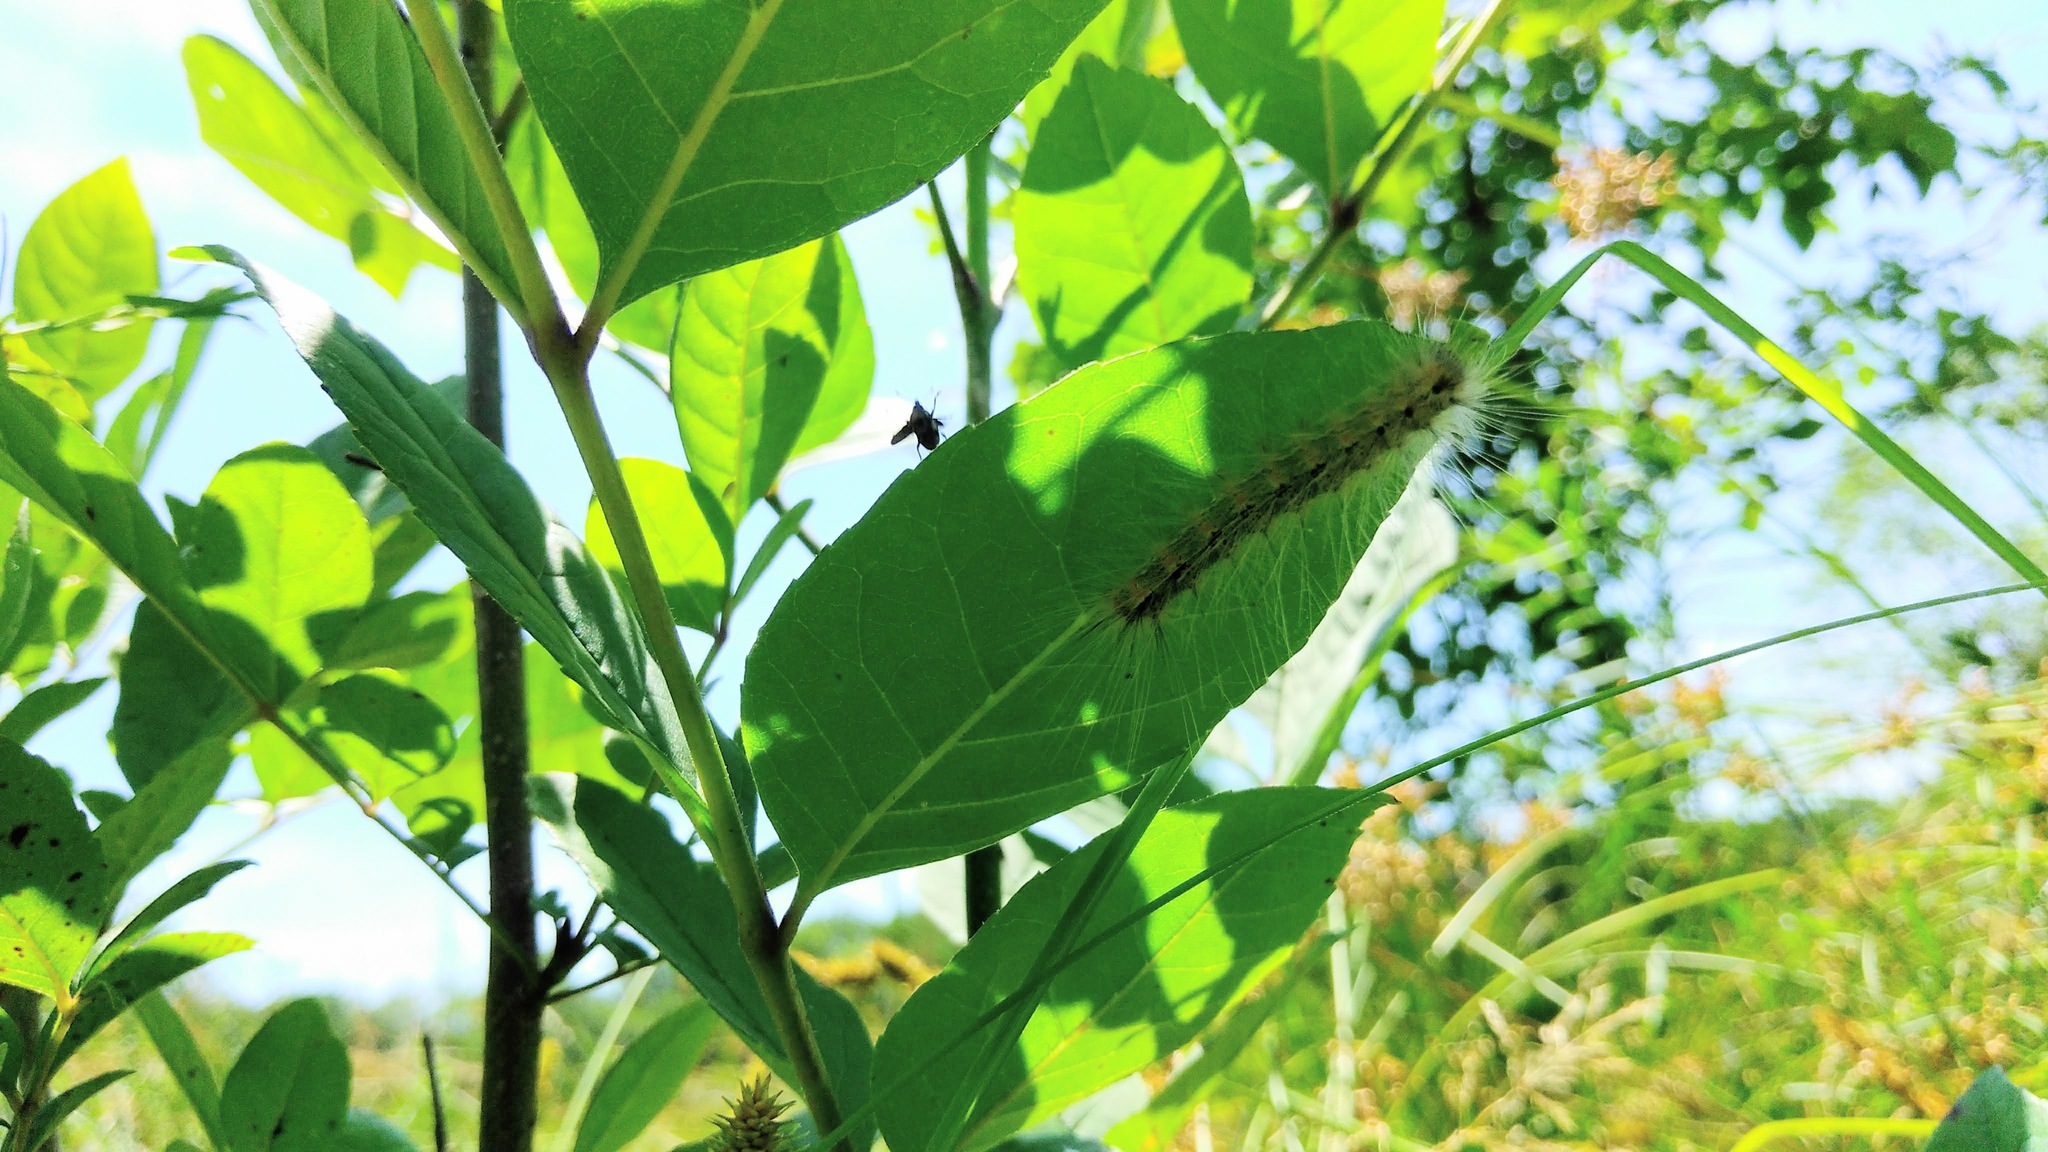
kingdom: Animalia
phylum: Arthropoda
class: Insecta
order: Lepidoptera
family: Erebidae
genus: Hyphantria
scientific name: Hyphantria cunea
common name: American white moth
